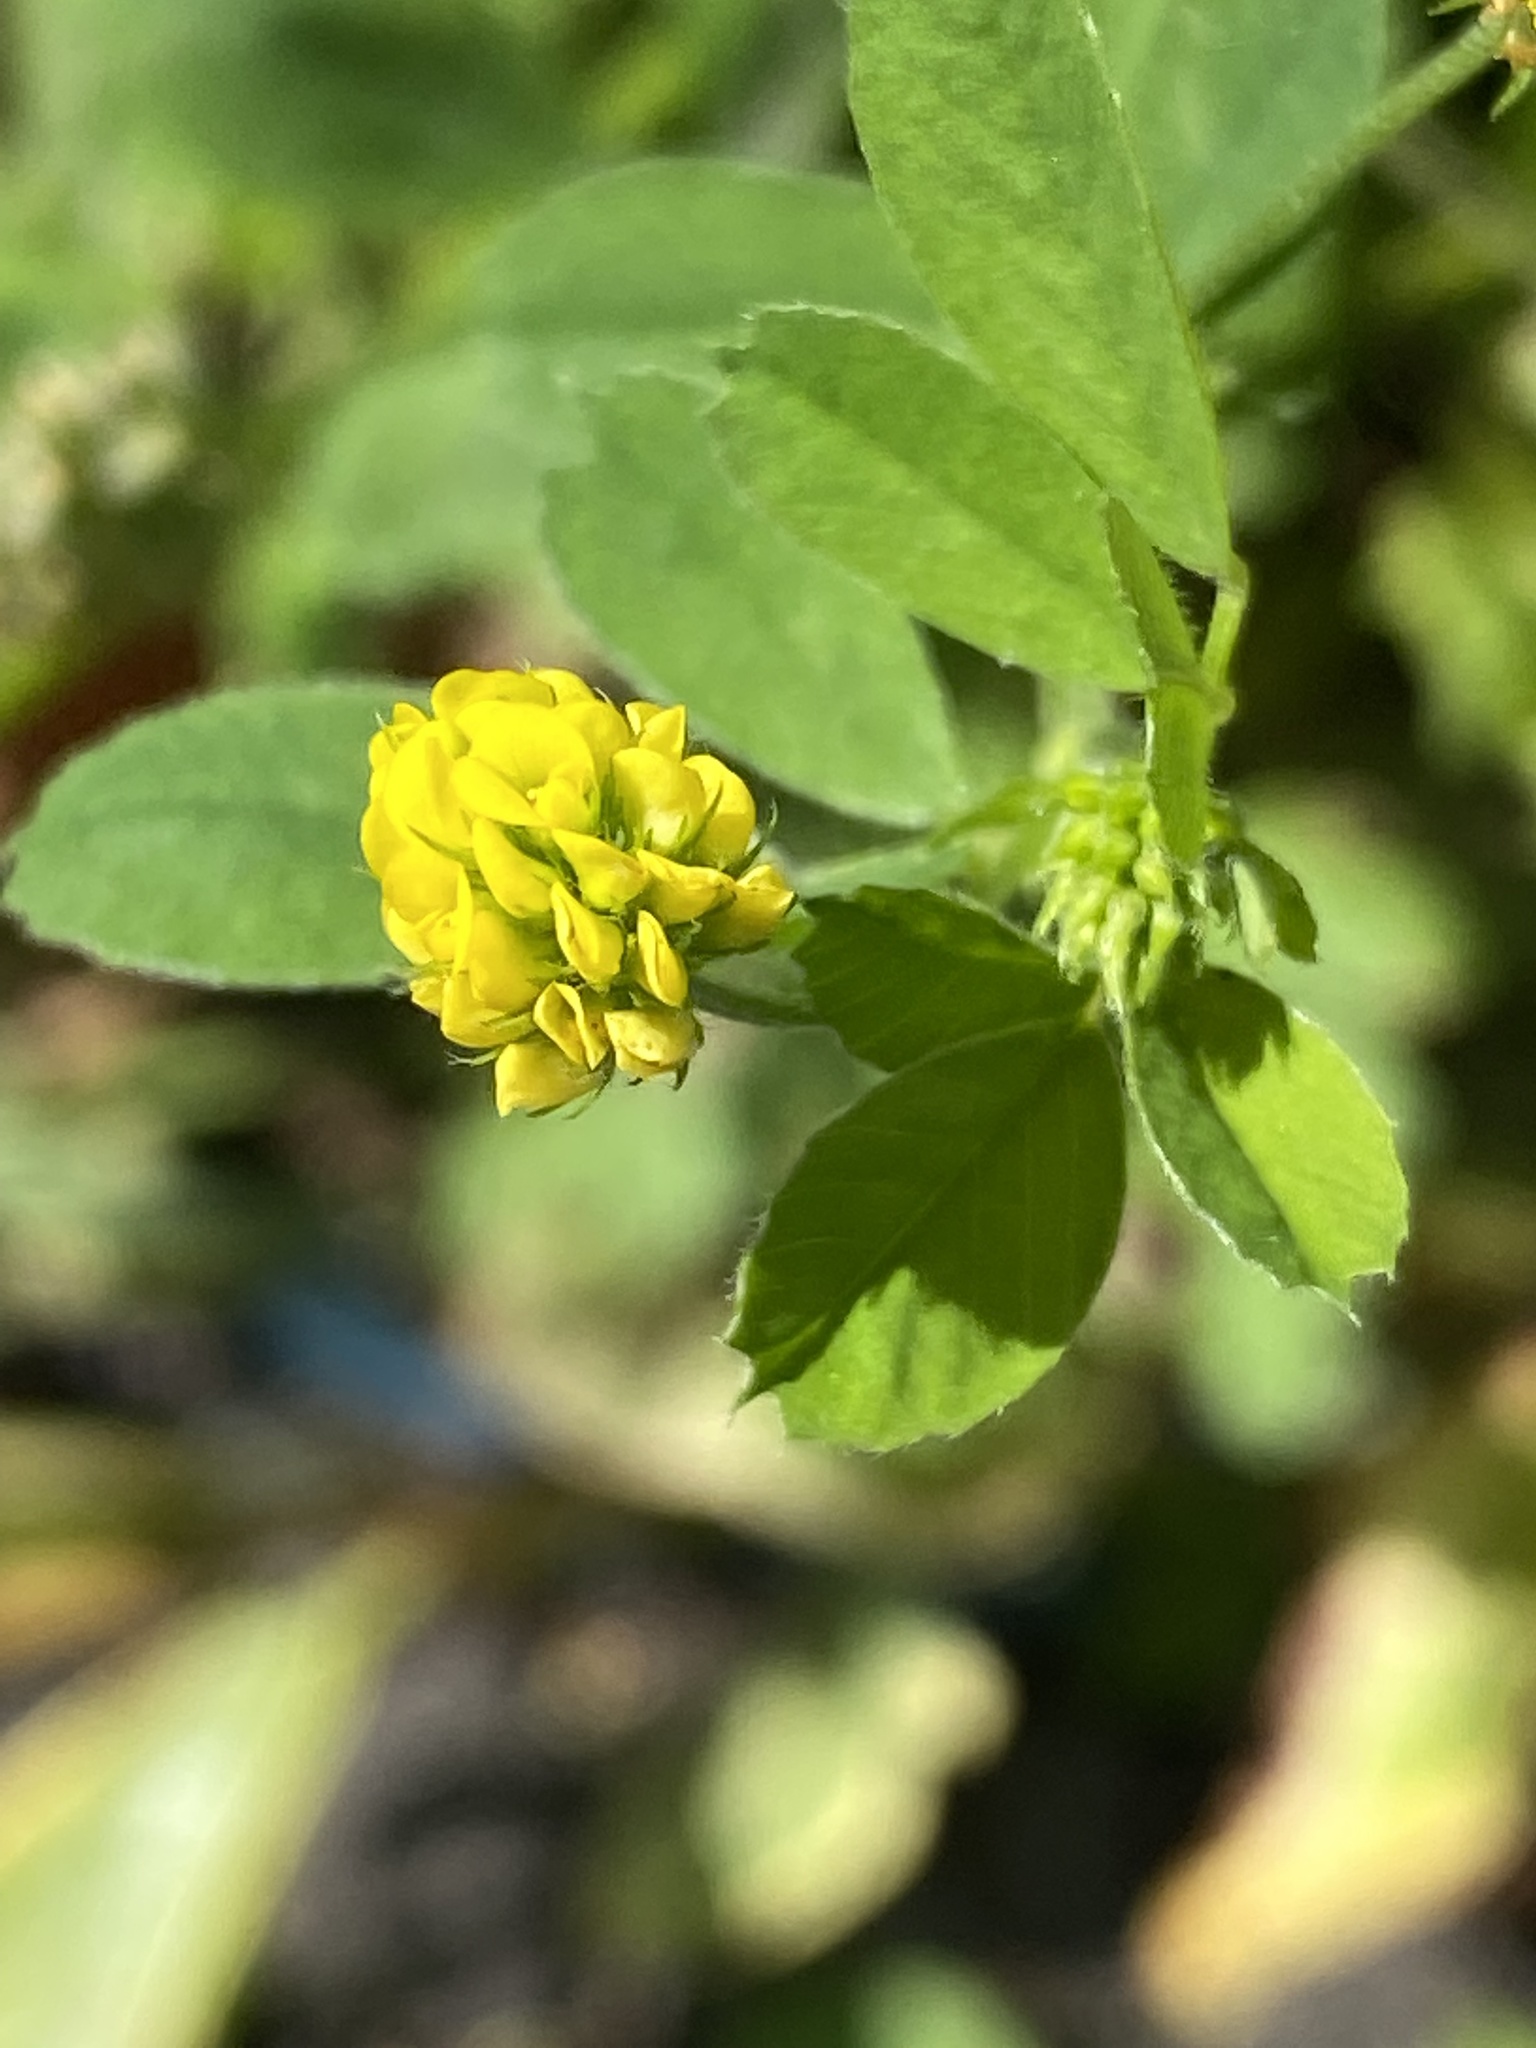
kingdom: Plantae
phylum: Tracheophyta
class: Magnoliopsida
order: Fabales
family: Fabaceae
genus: Medicago
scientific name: Medicago lupulina
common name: Black medick
